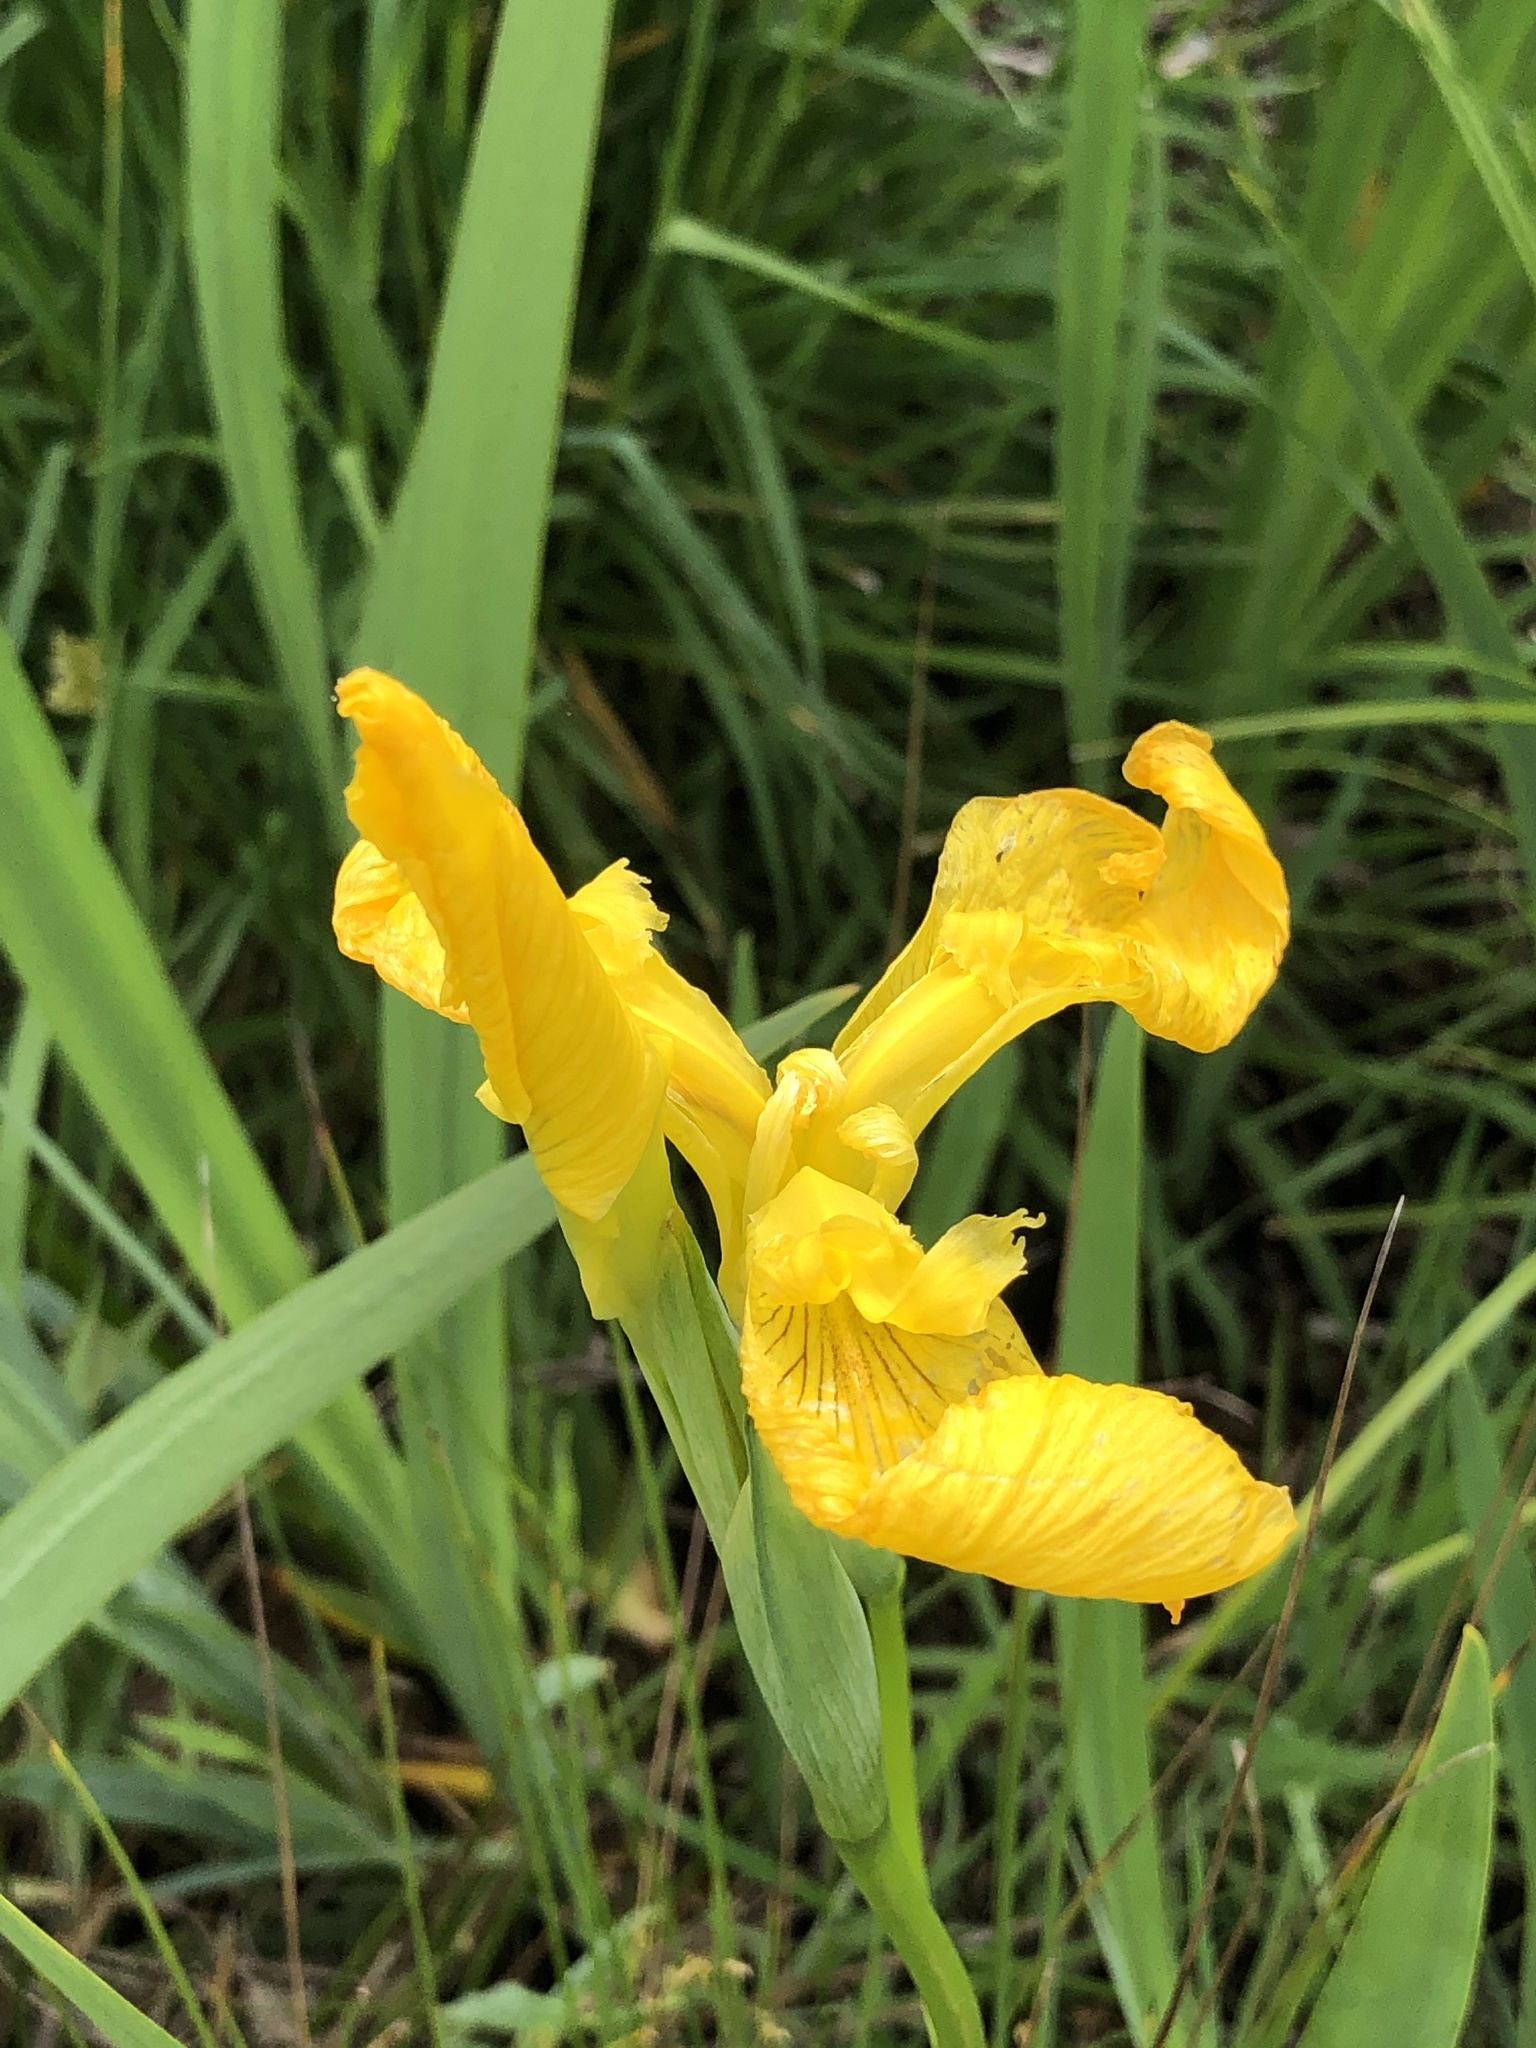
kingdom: Plantae
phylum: Tracheophyta
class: Liliopsida
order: Asparagales
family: Iridaceae
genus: Iris
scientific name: Iris pseudacorus
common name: Yellow flag
